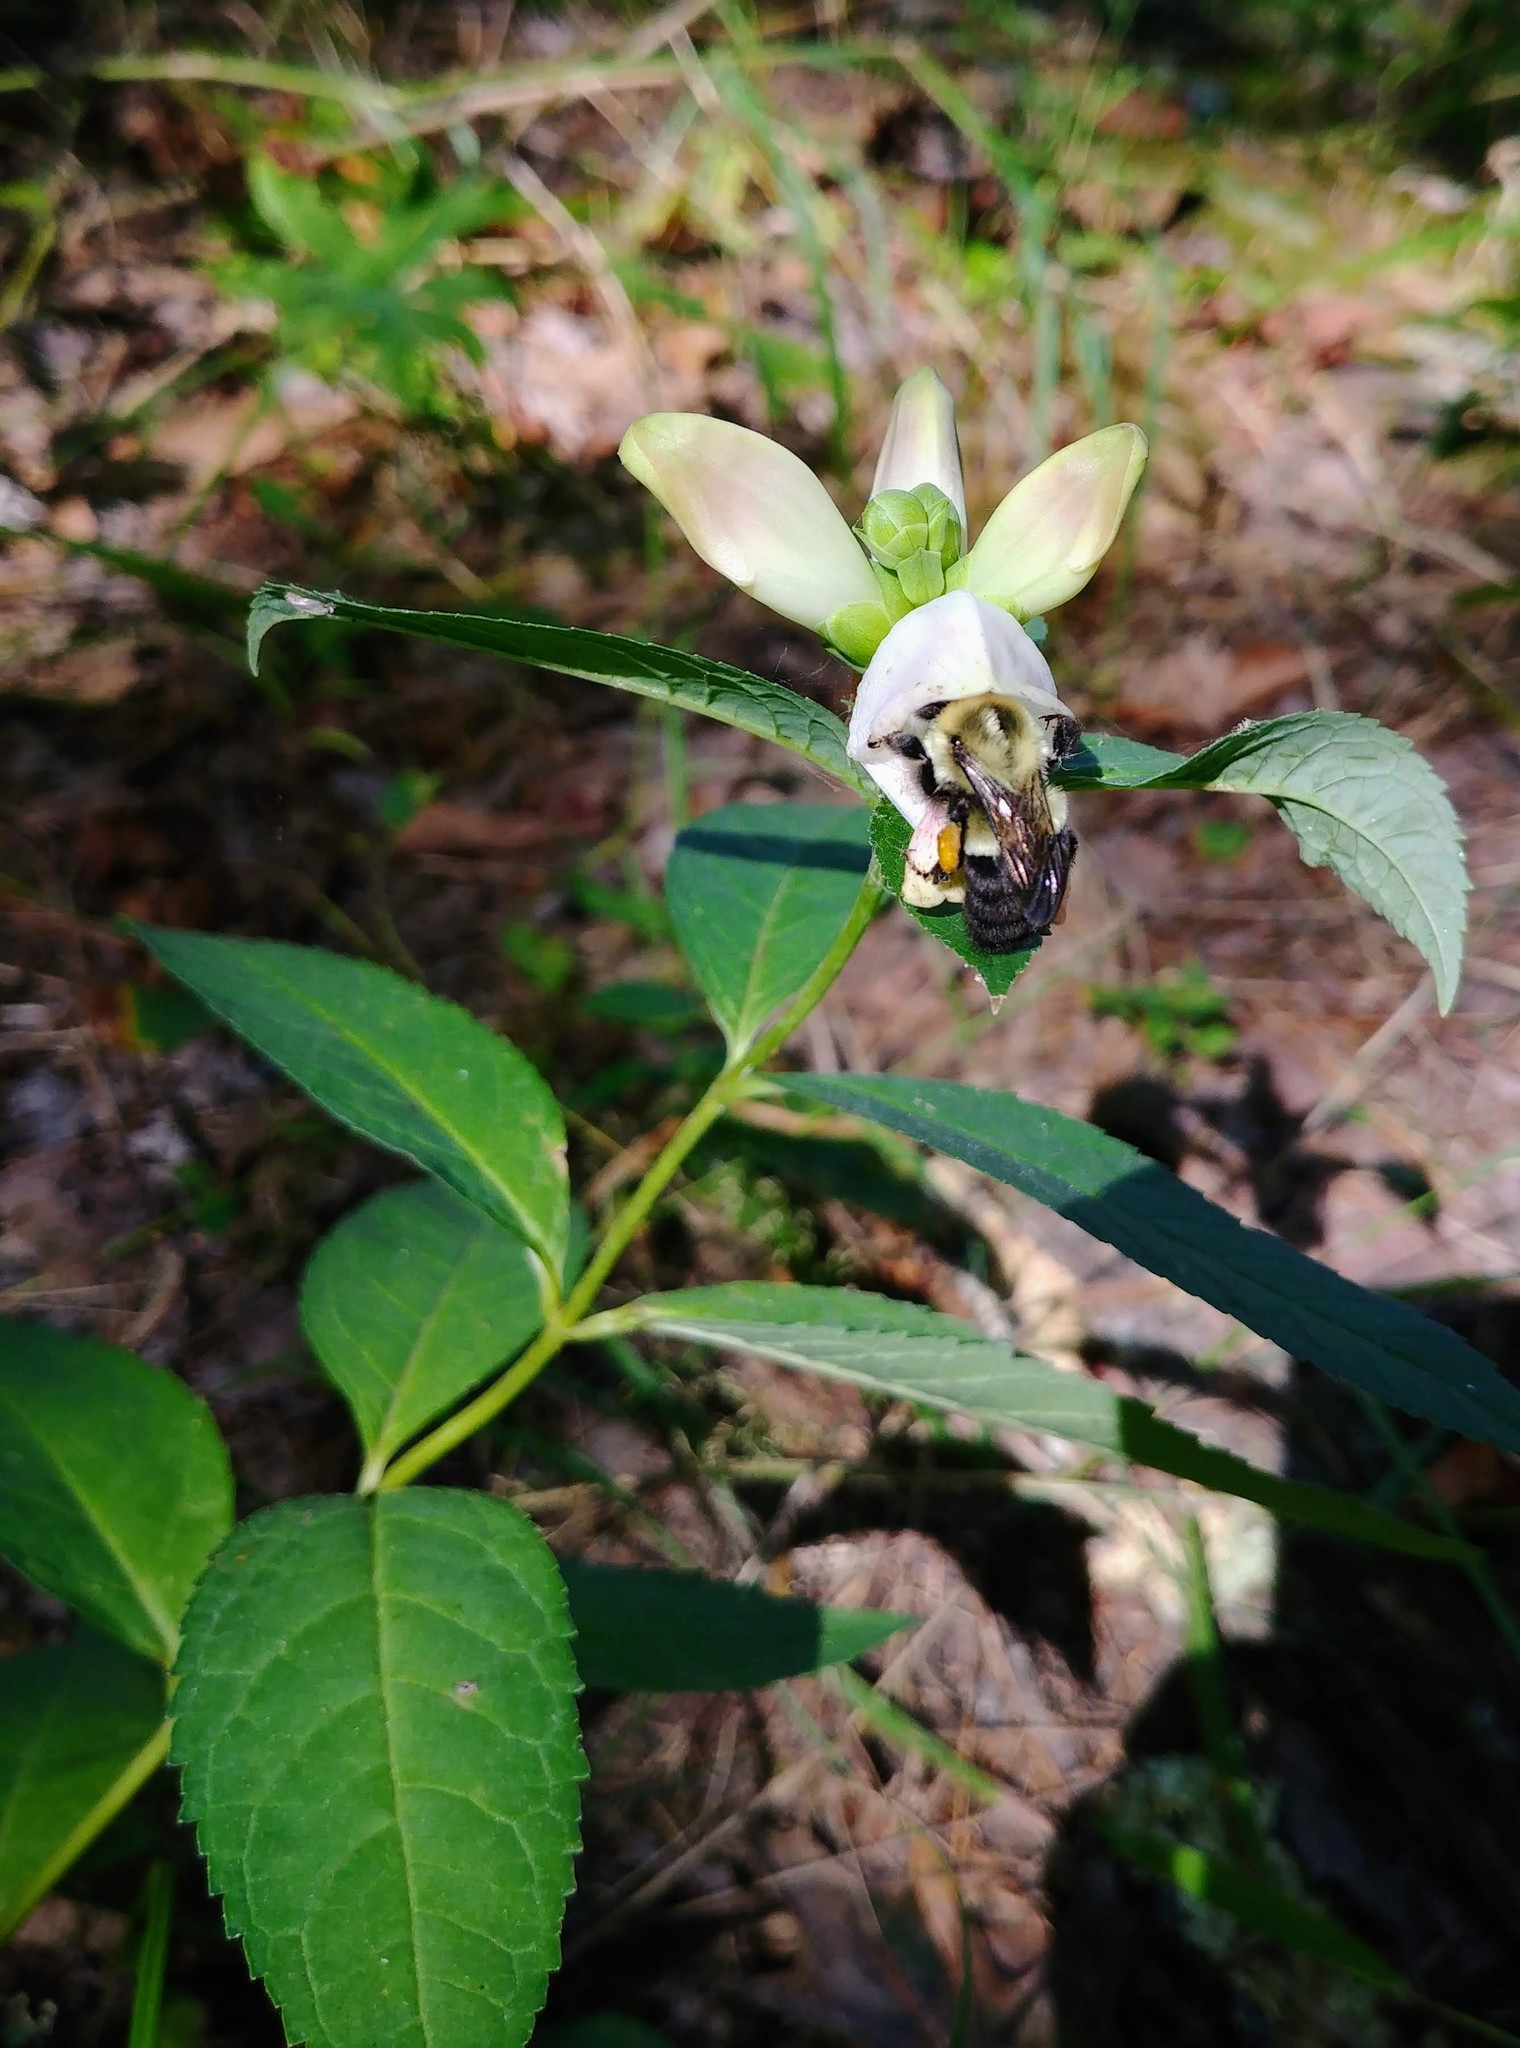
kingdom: Plantae
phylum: Tracheophyta
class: Magnoliopsida
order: Lamiales
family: Plantaginaceae
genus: Chelone
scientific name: Chelone glabra
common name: Snakehead
